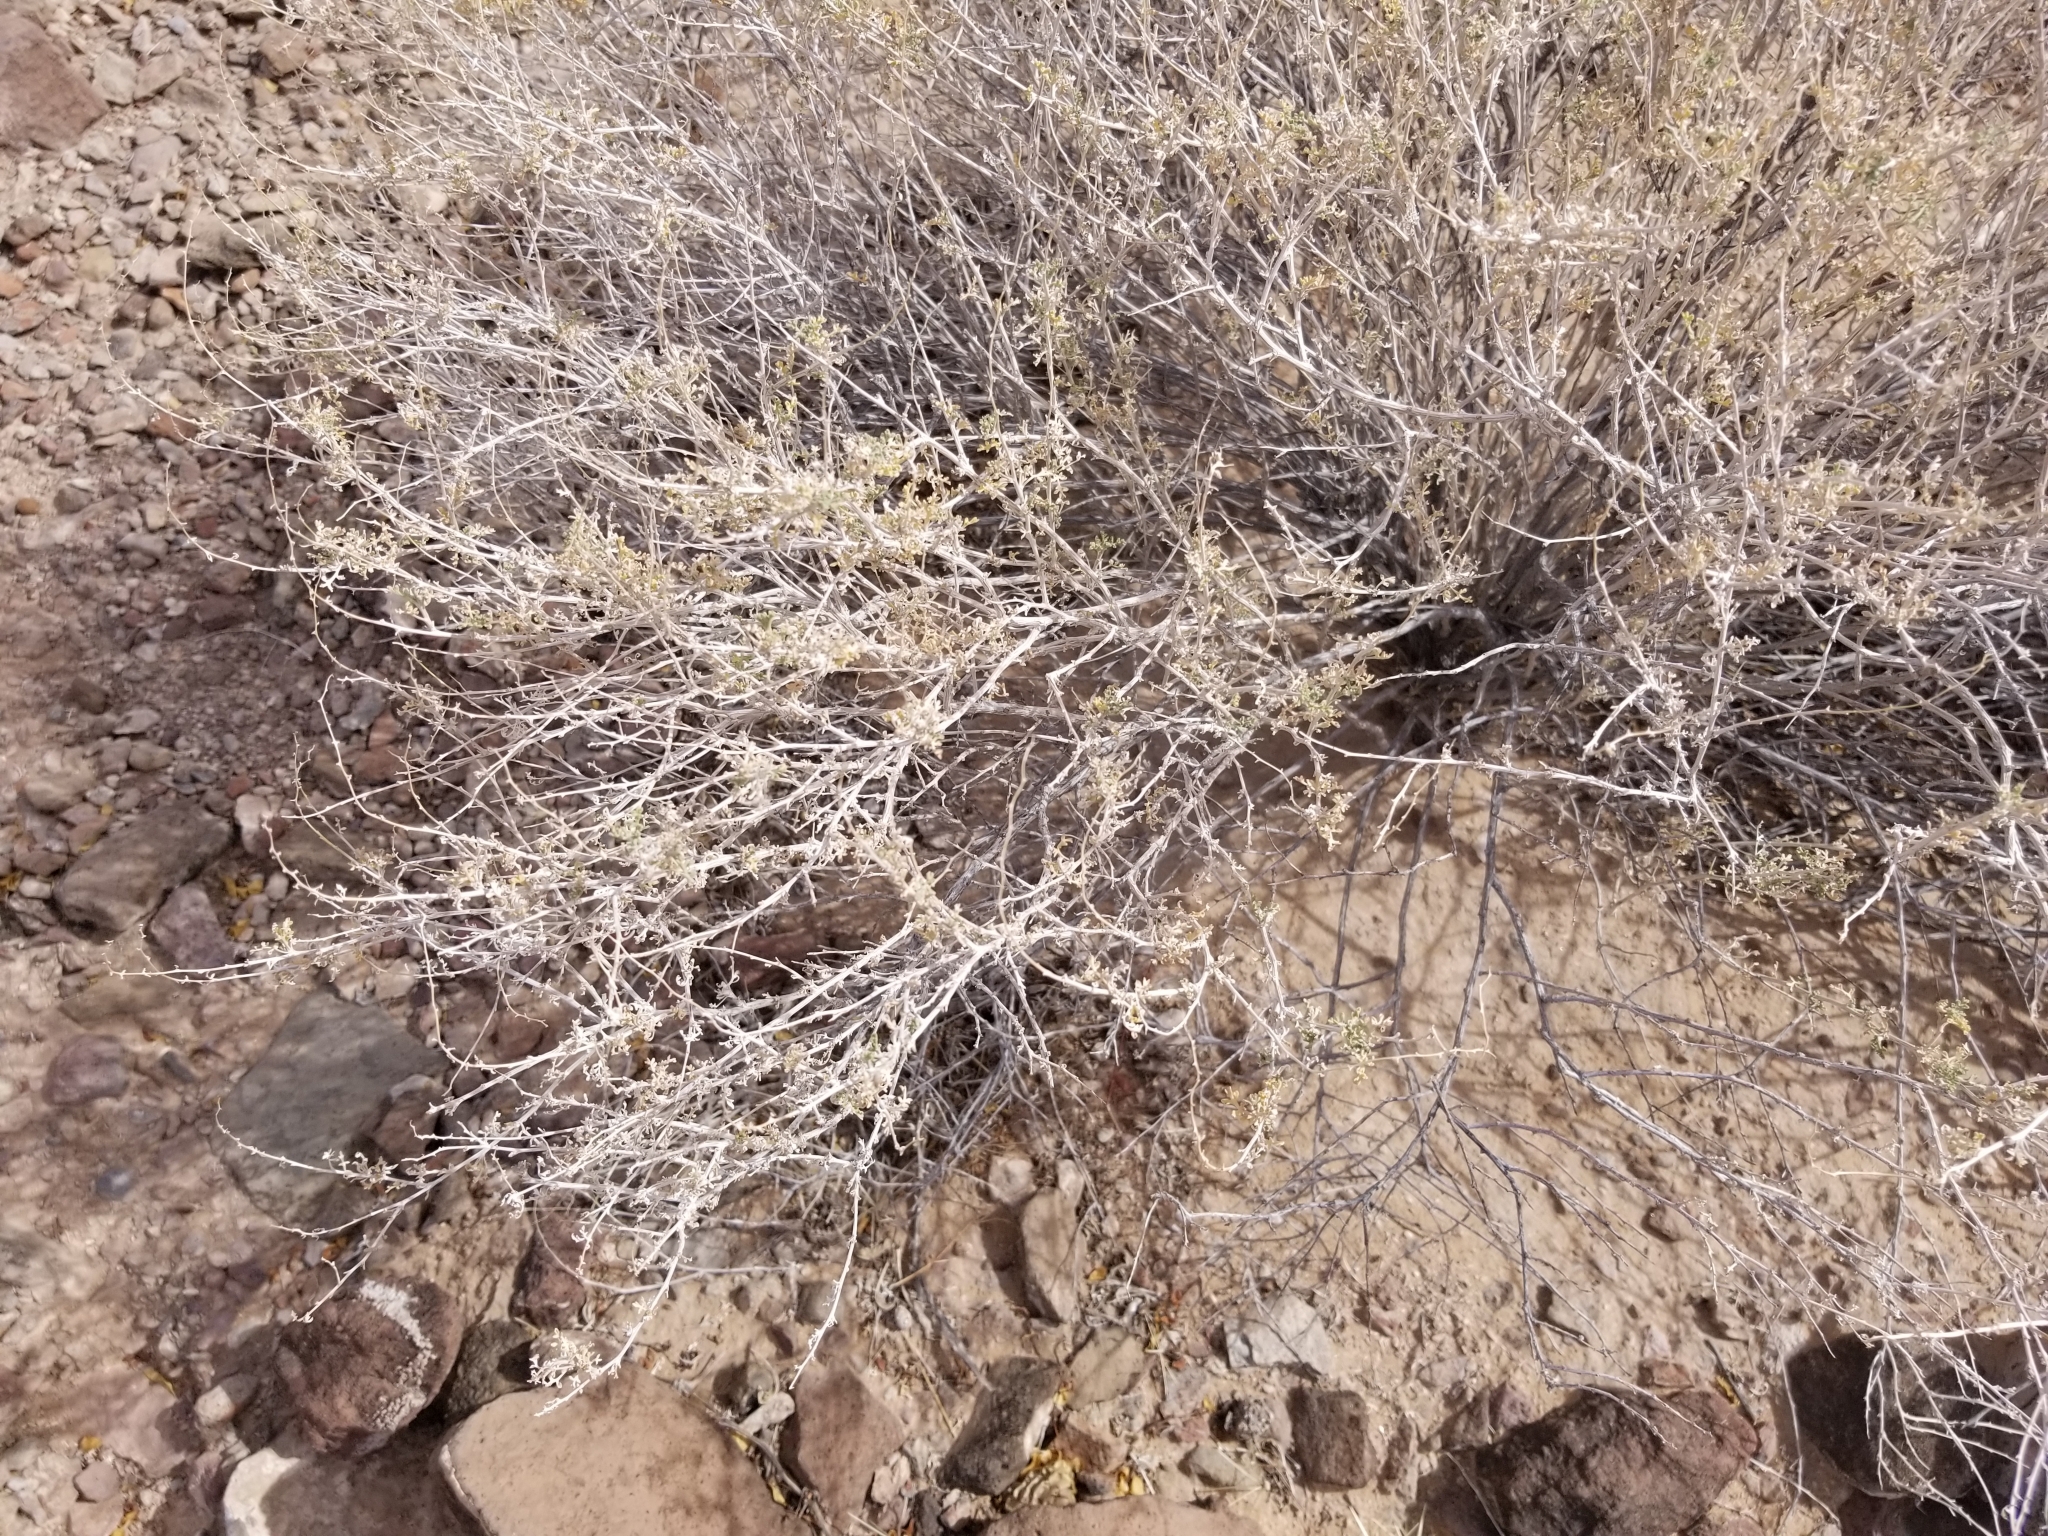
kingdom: Plantae
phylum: Tracheophyta
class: Magnoliopsida
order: Asterales
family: Asteraceae
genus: Ambrosia
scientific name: Ambrosia dumosa
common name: Bur-sage
